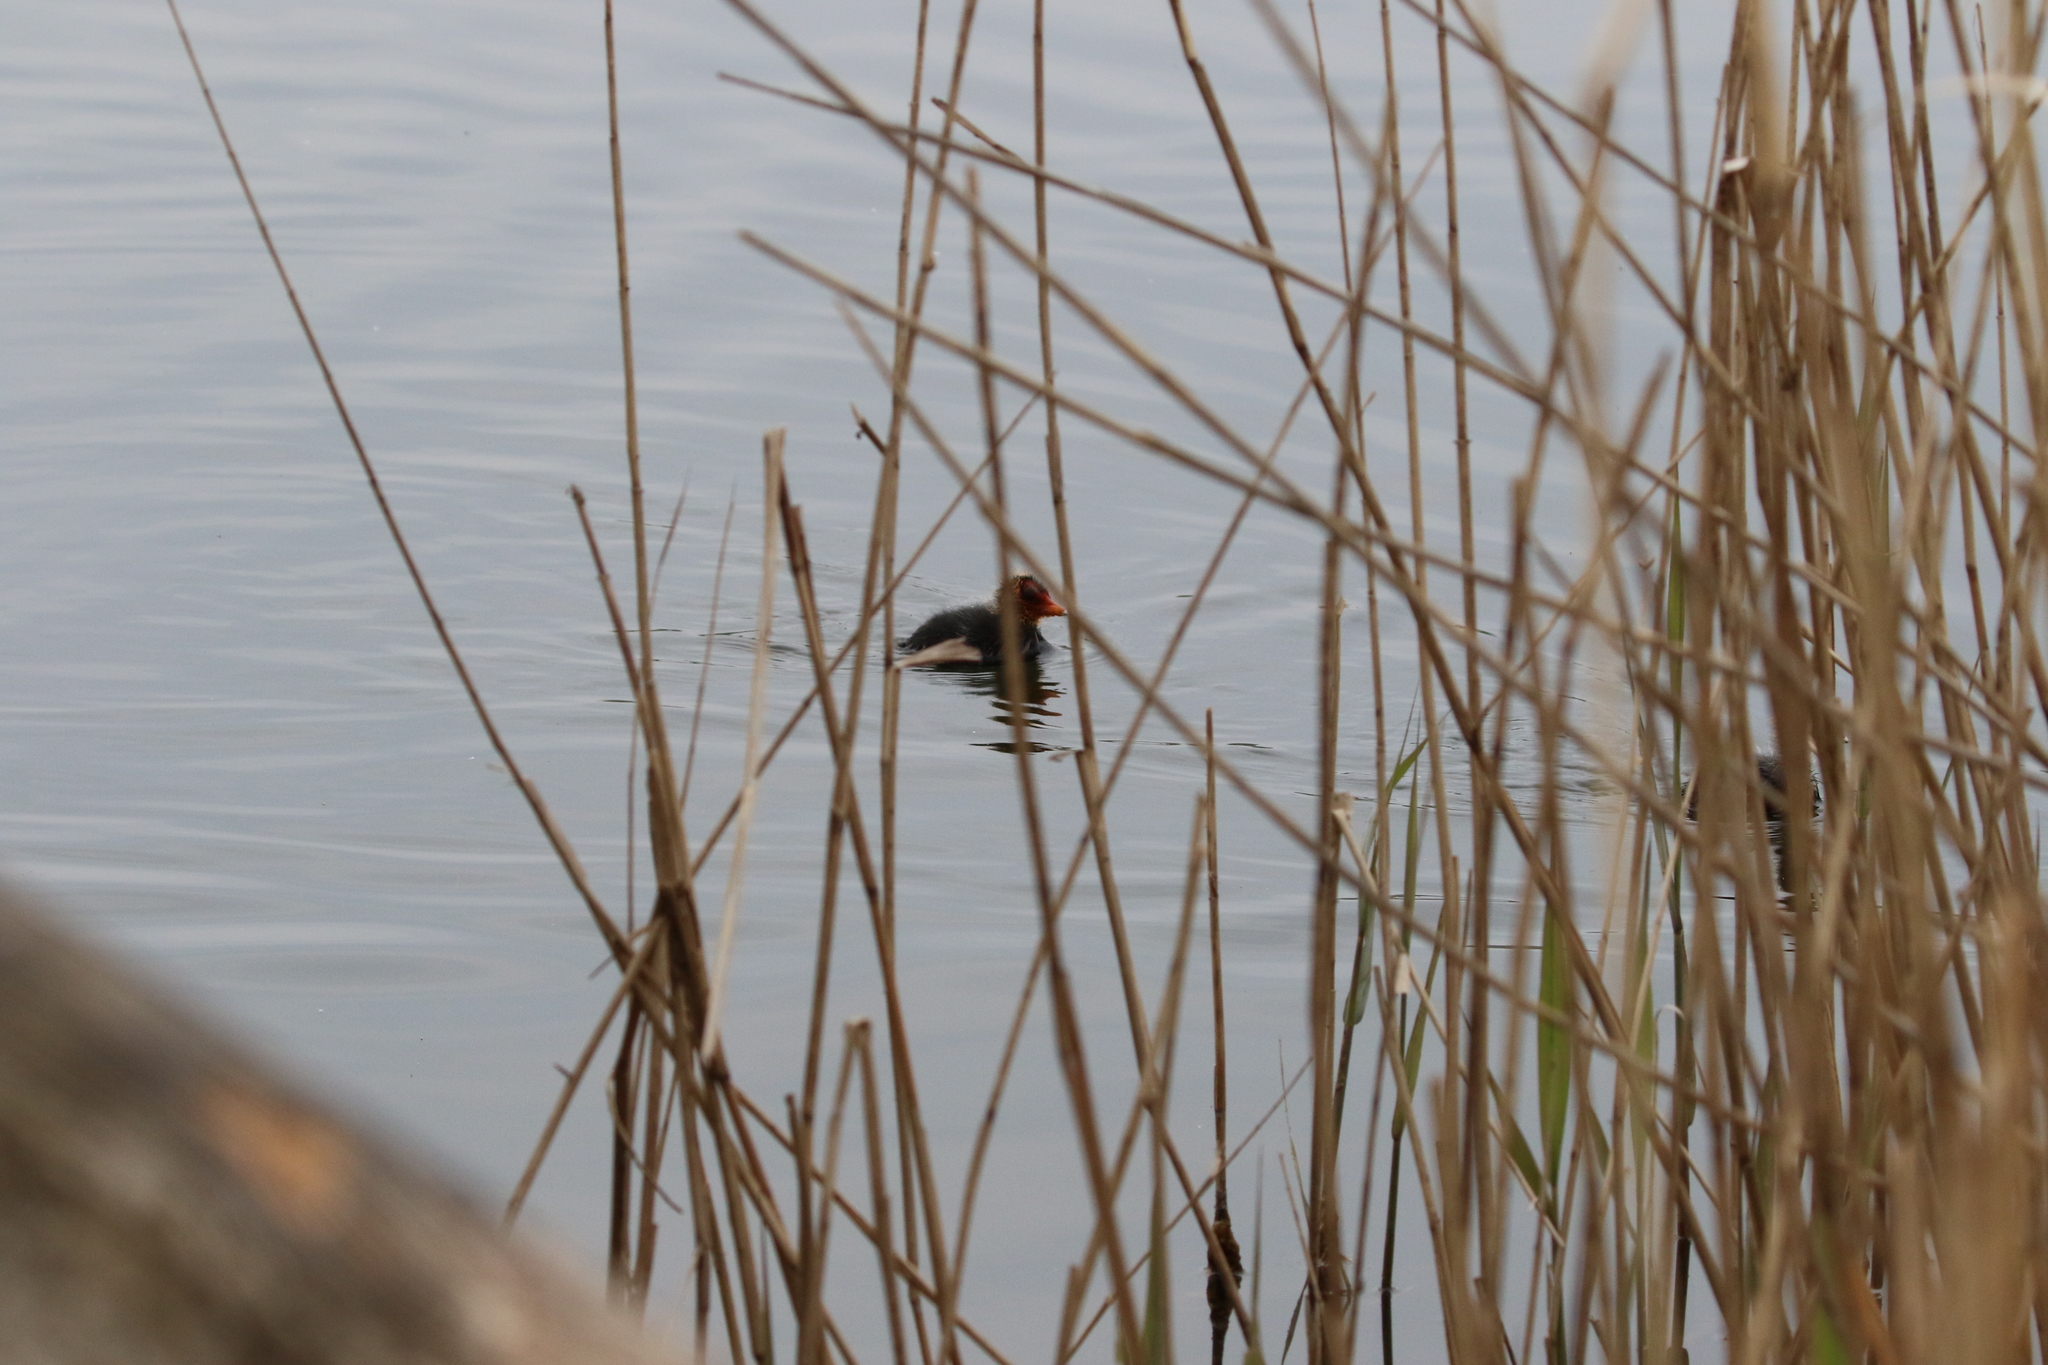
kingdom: Animalia
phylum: Chordata
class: Aves
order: Gruiformes
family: Rallidae
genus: Fulica
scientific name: Fulica atra
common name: Eurasian coot
